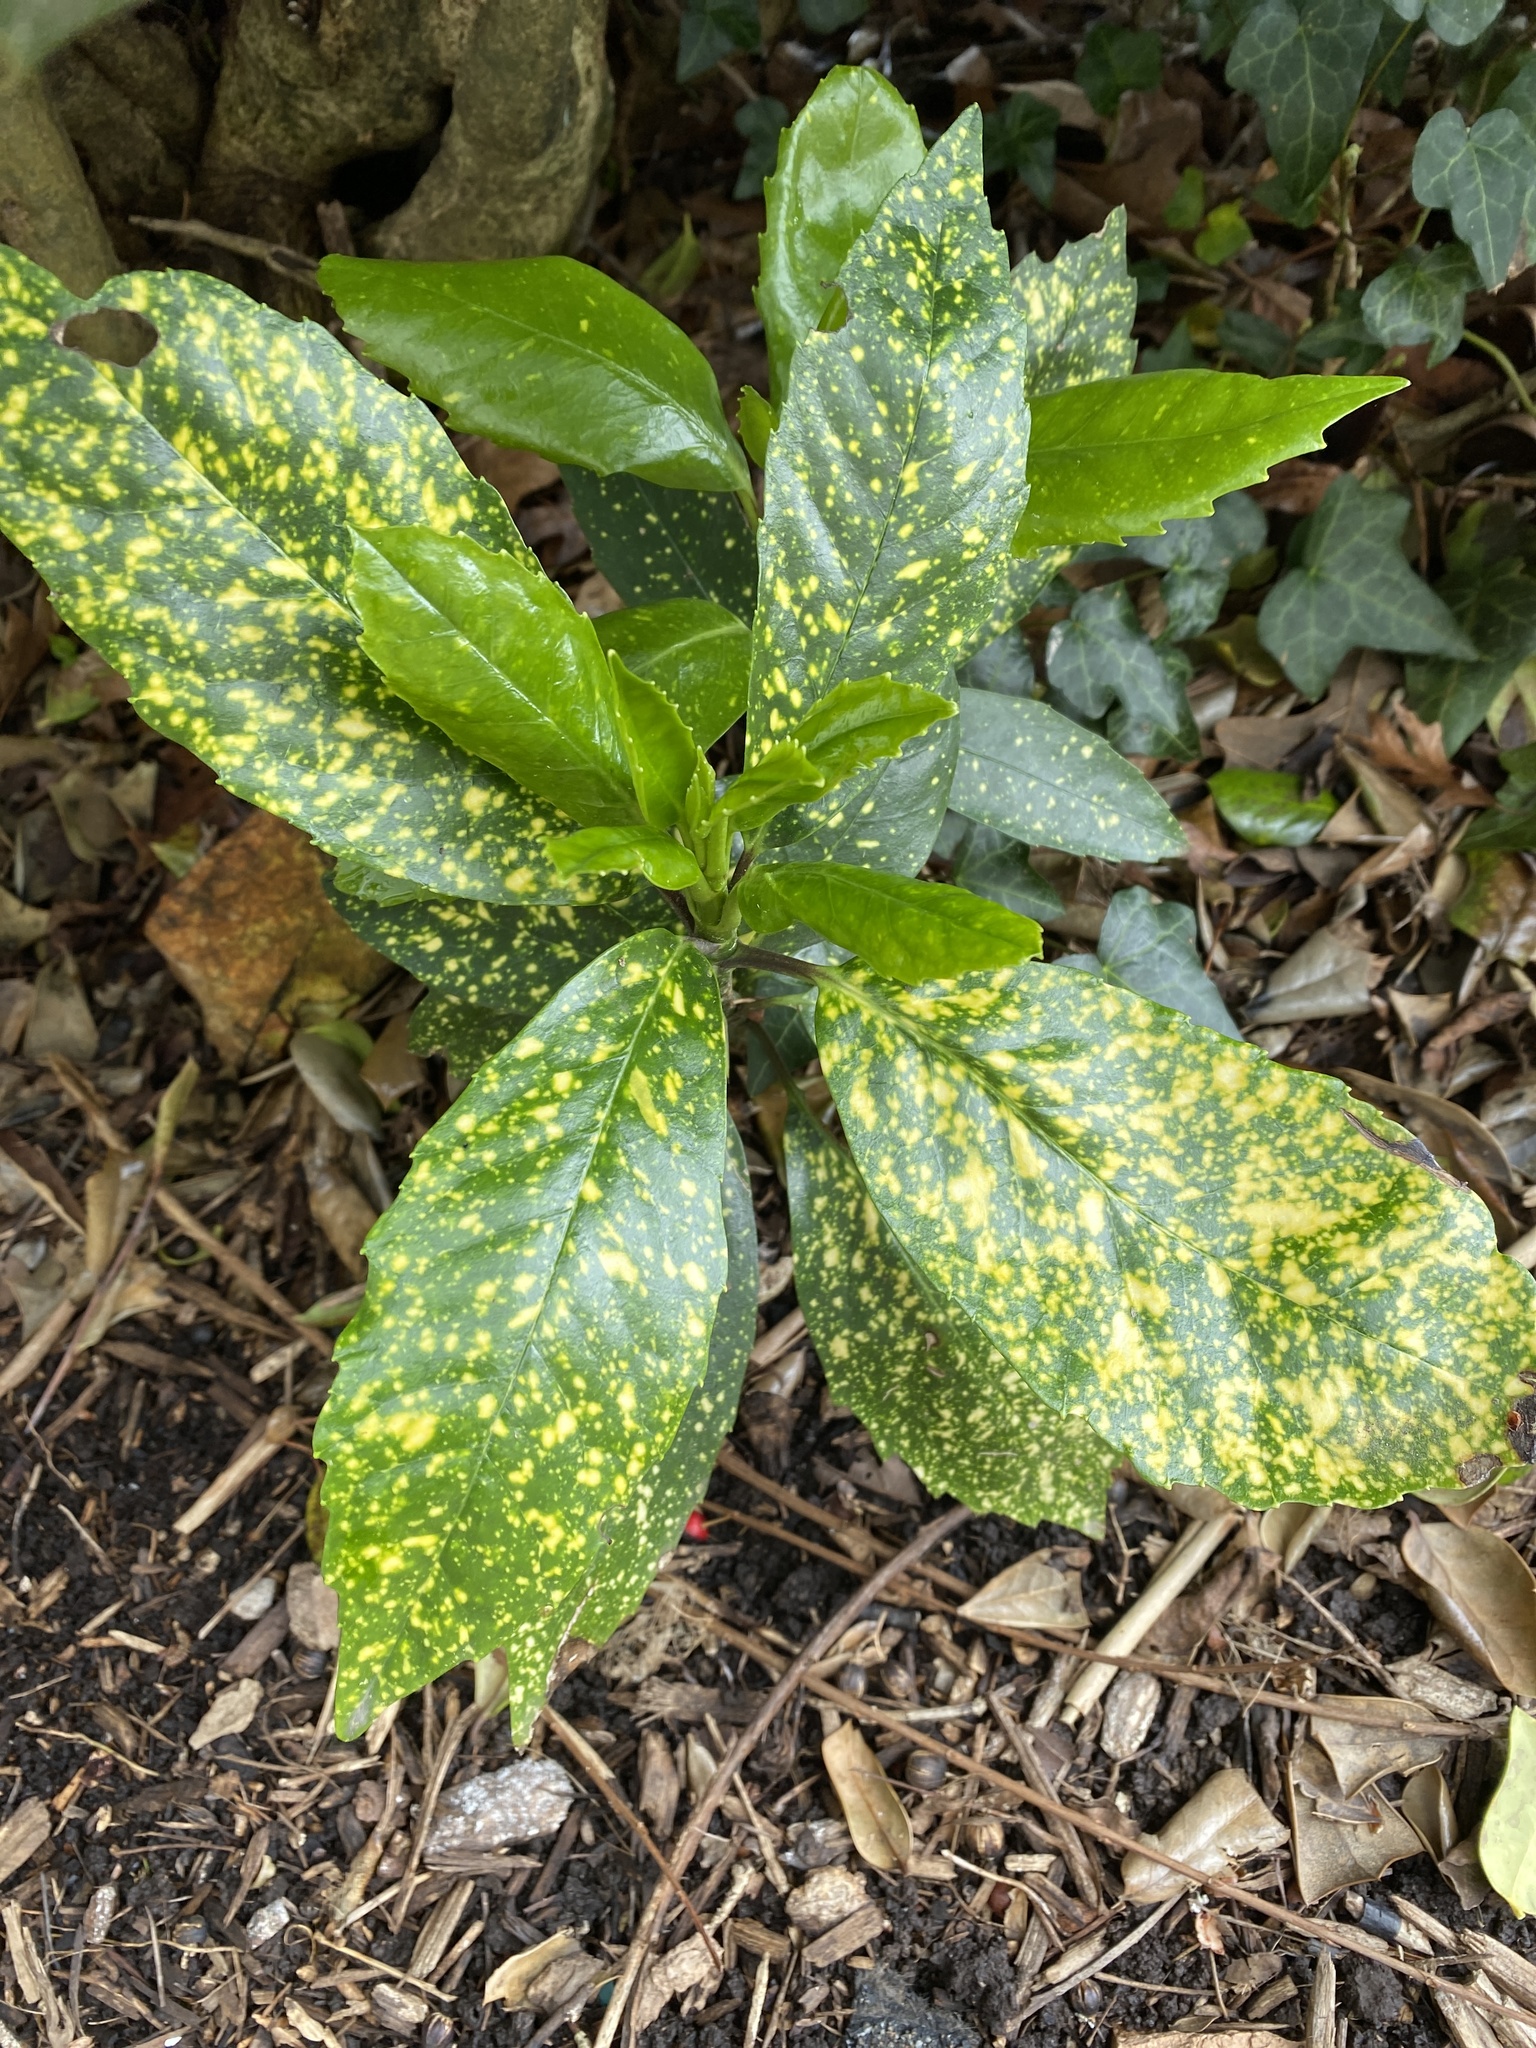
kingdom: Plantae
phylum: Tracheophyta
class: Magnoliopsida
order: Garryales
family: Garryaceae
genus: Aucuba
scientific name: Aucuba japonica
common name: Spotted-laurel
